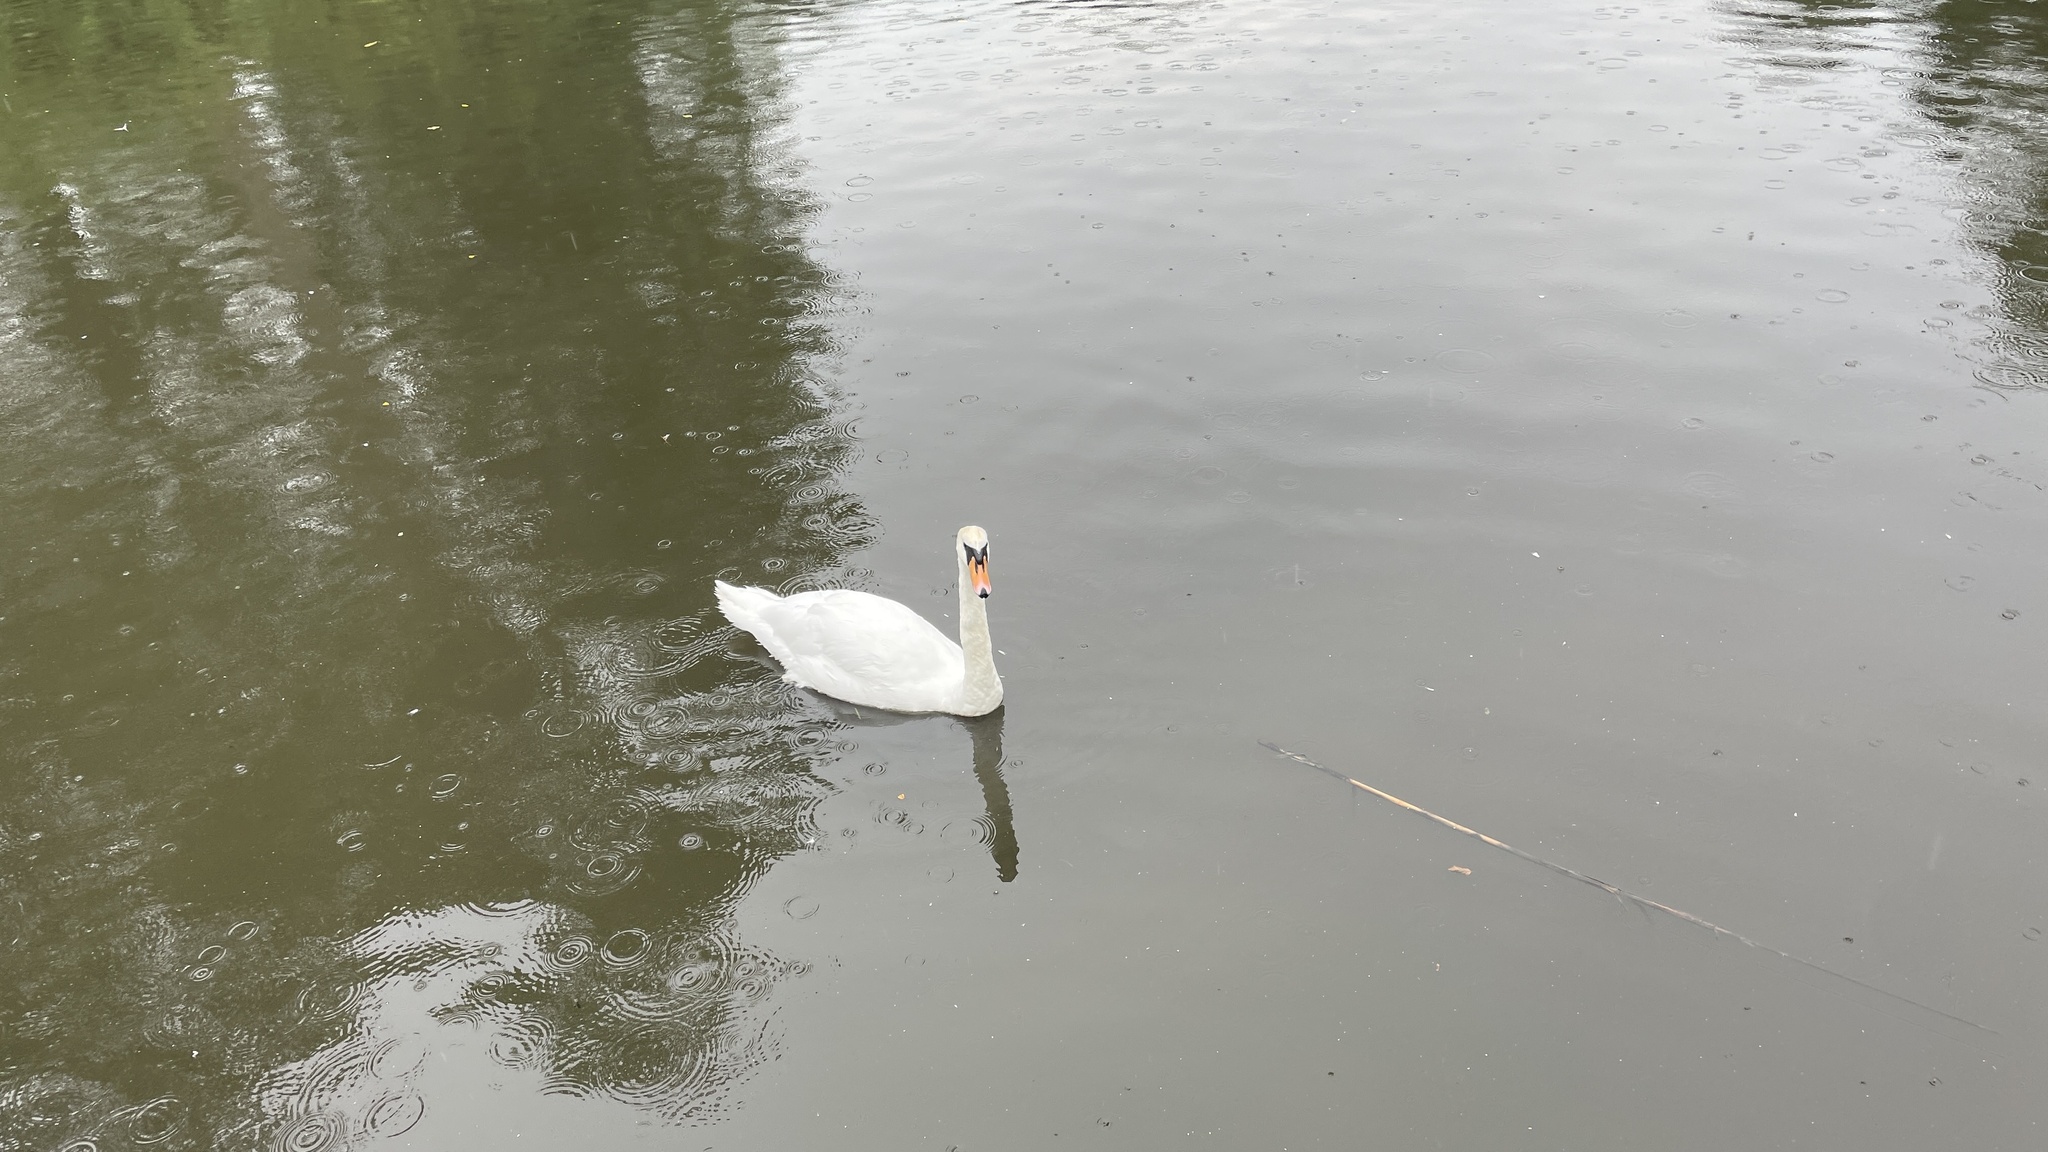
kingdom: Animalia
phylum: Chordata
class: Aves
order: Anseriformes
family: Anatidae
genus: Cygnus
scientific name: Cygnus olor
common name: Mute swan
